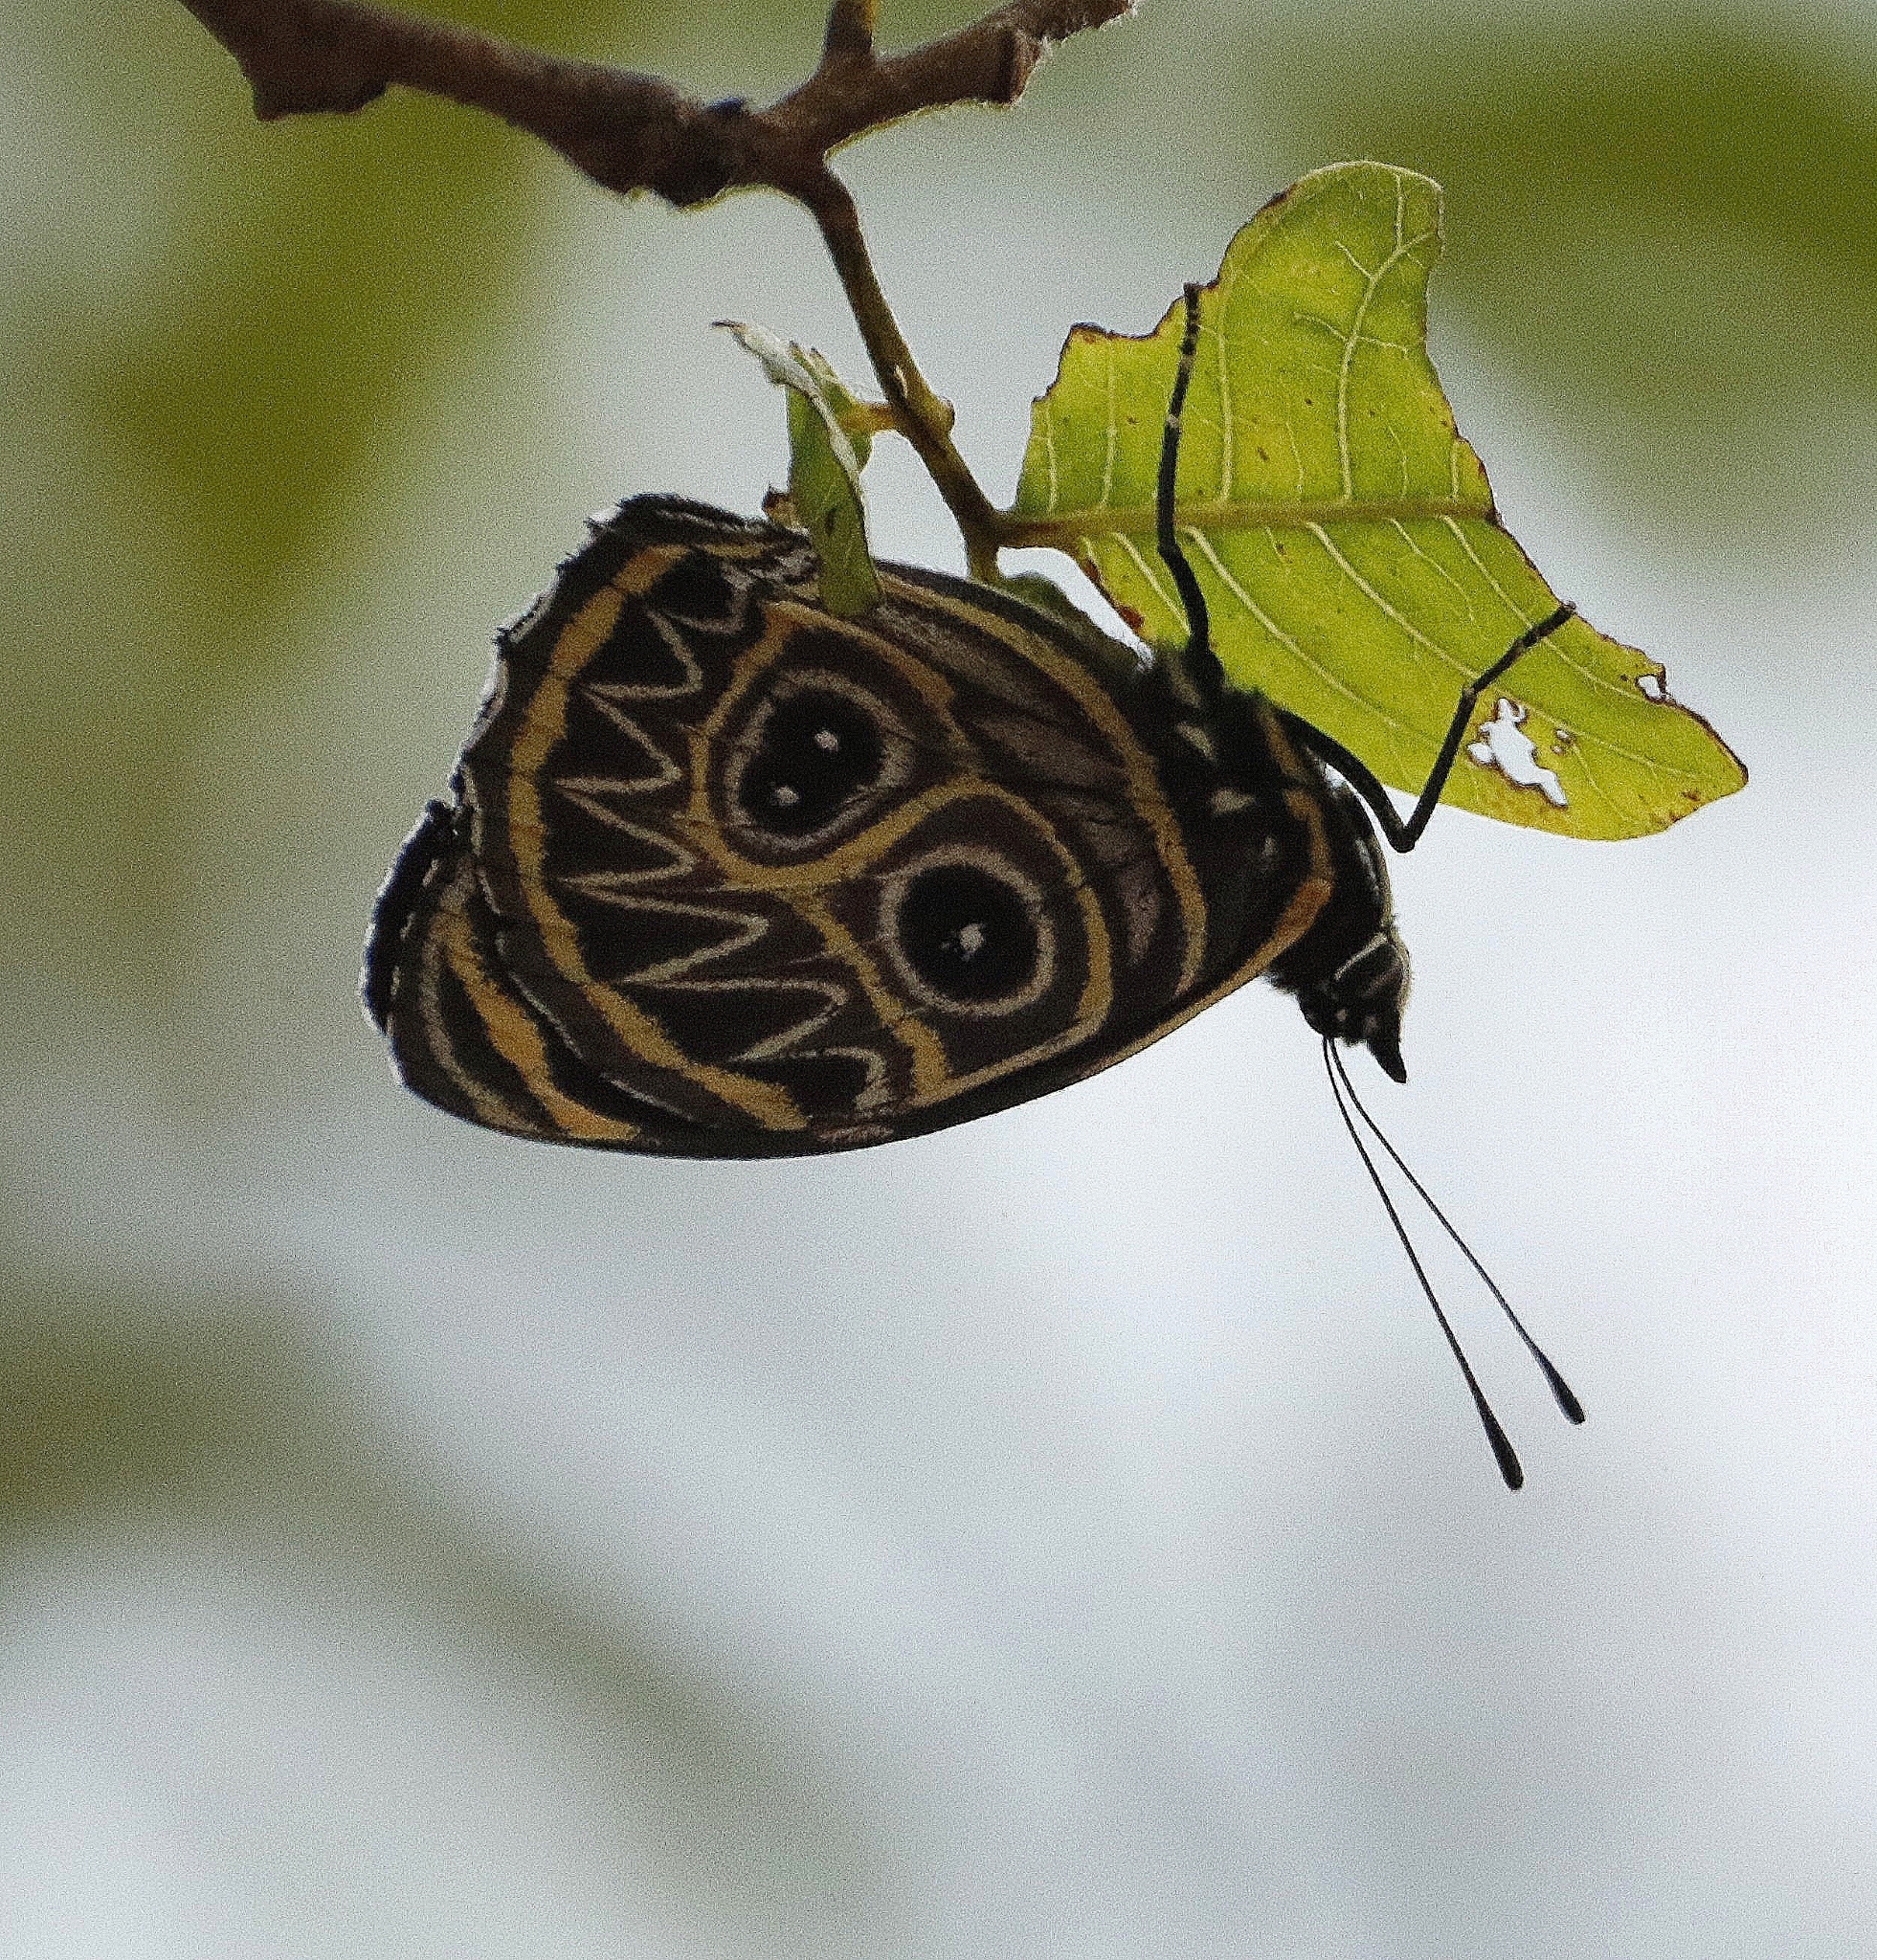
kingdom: Animalia
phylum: Arthropoda
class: Insecta
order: Lepidoptera
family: Nymphalidae
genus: Catagramma
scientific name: Catagramma Callicore sorana
